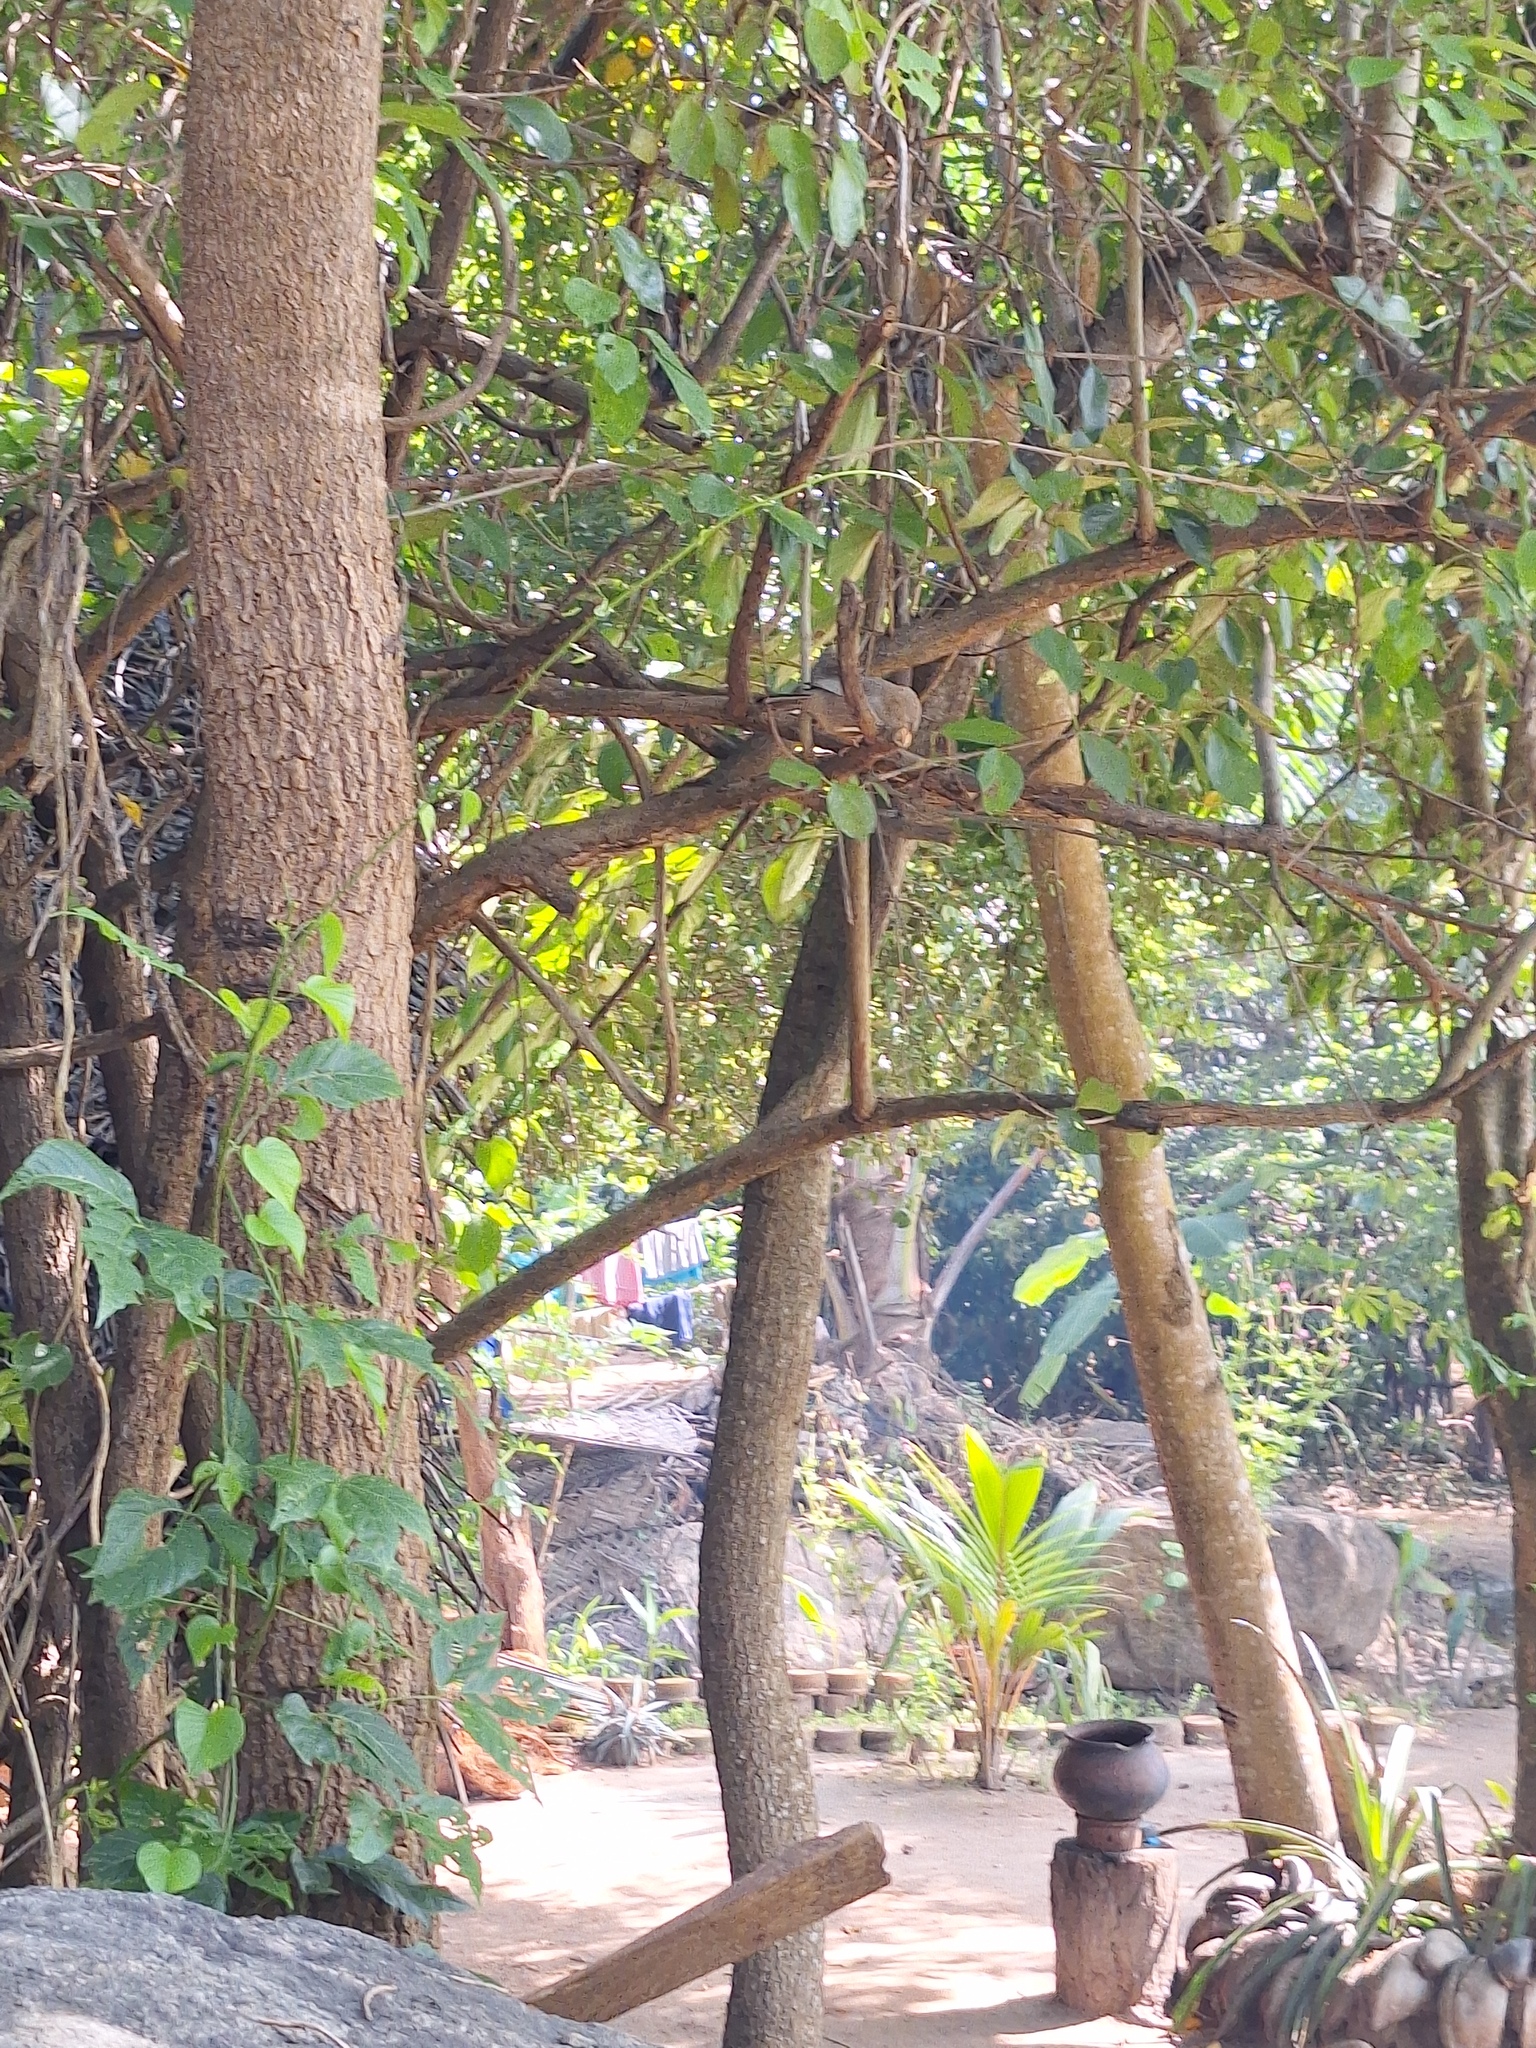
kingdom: Animalia
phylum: Chordata
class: Aves
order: Passeriformes
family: Leiothrichidae
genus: Turdoides
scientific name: Turdoides affinis
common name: Yellow-billed babbler
